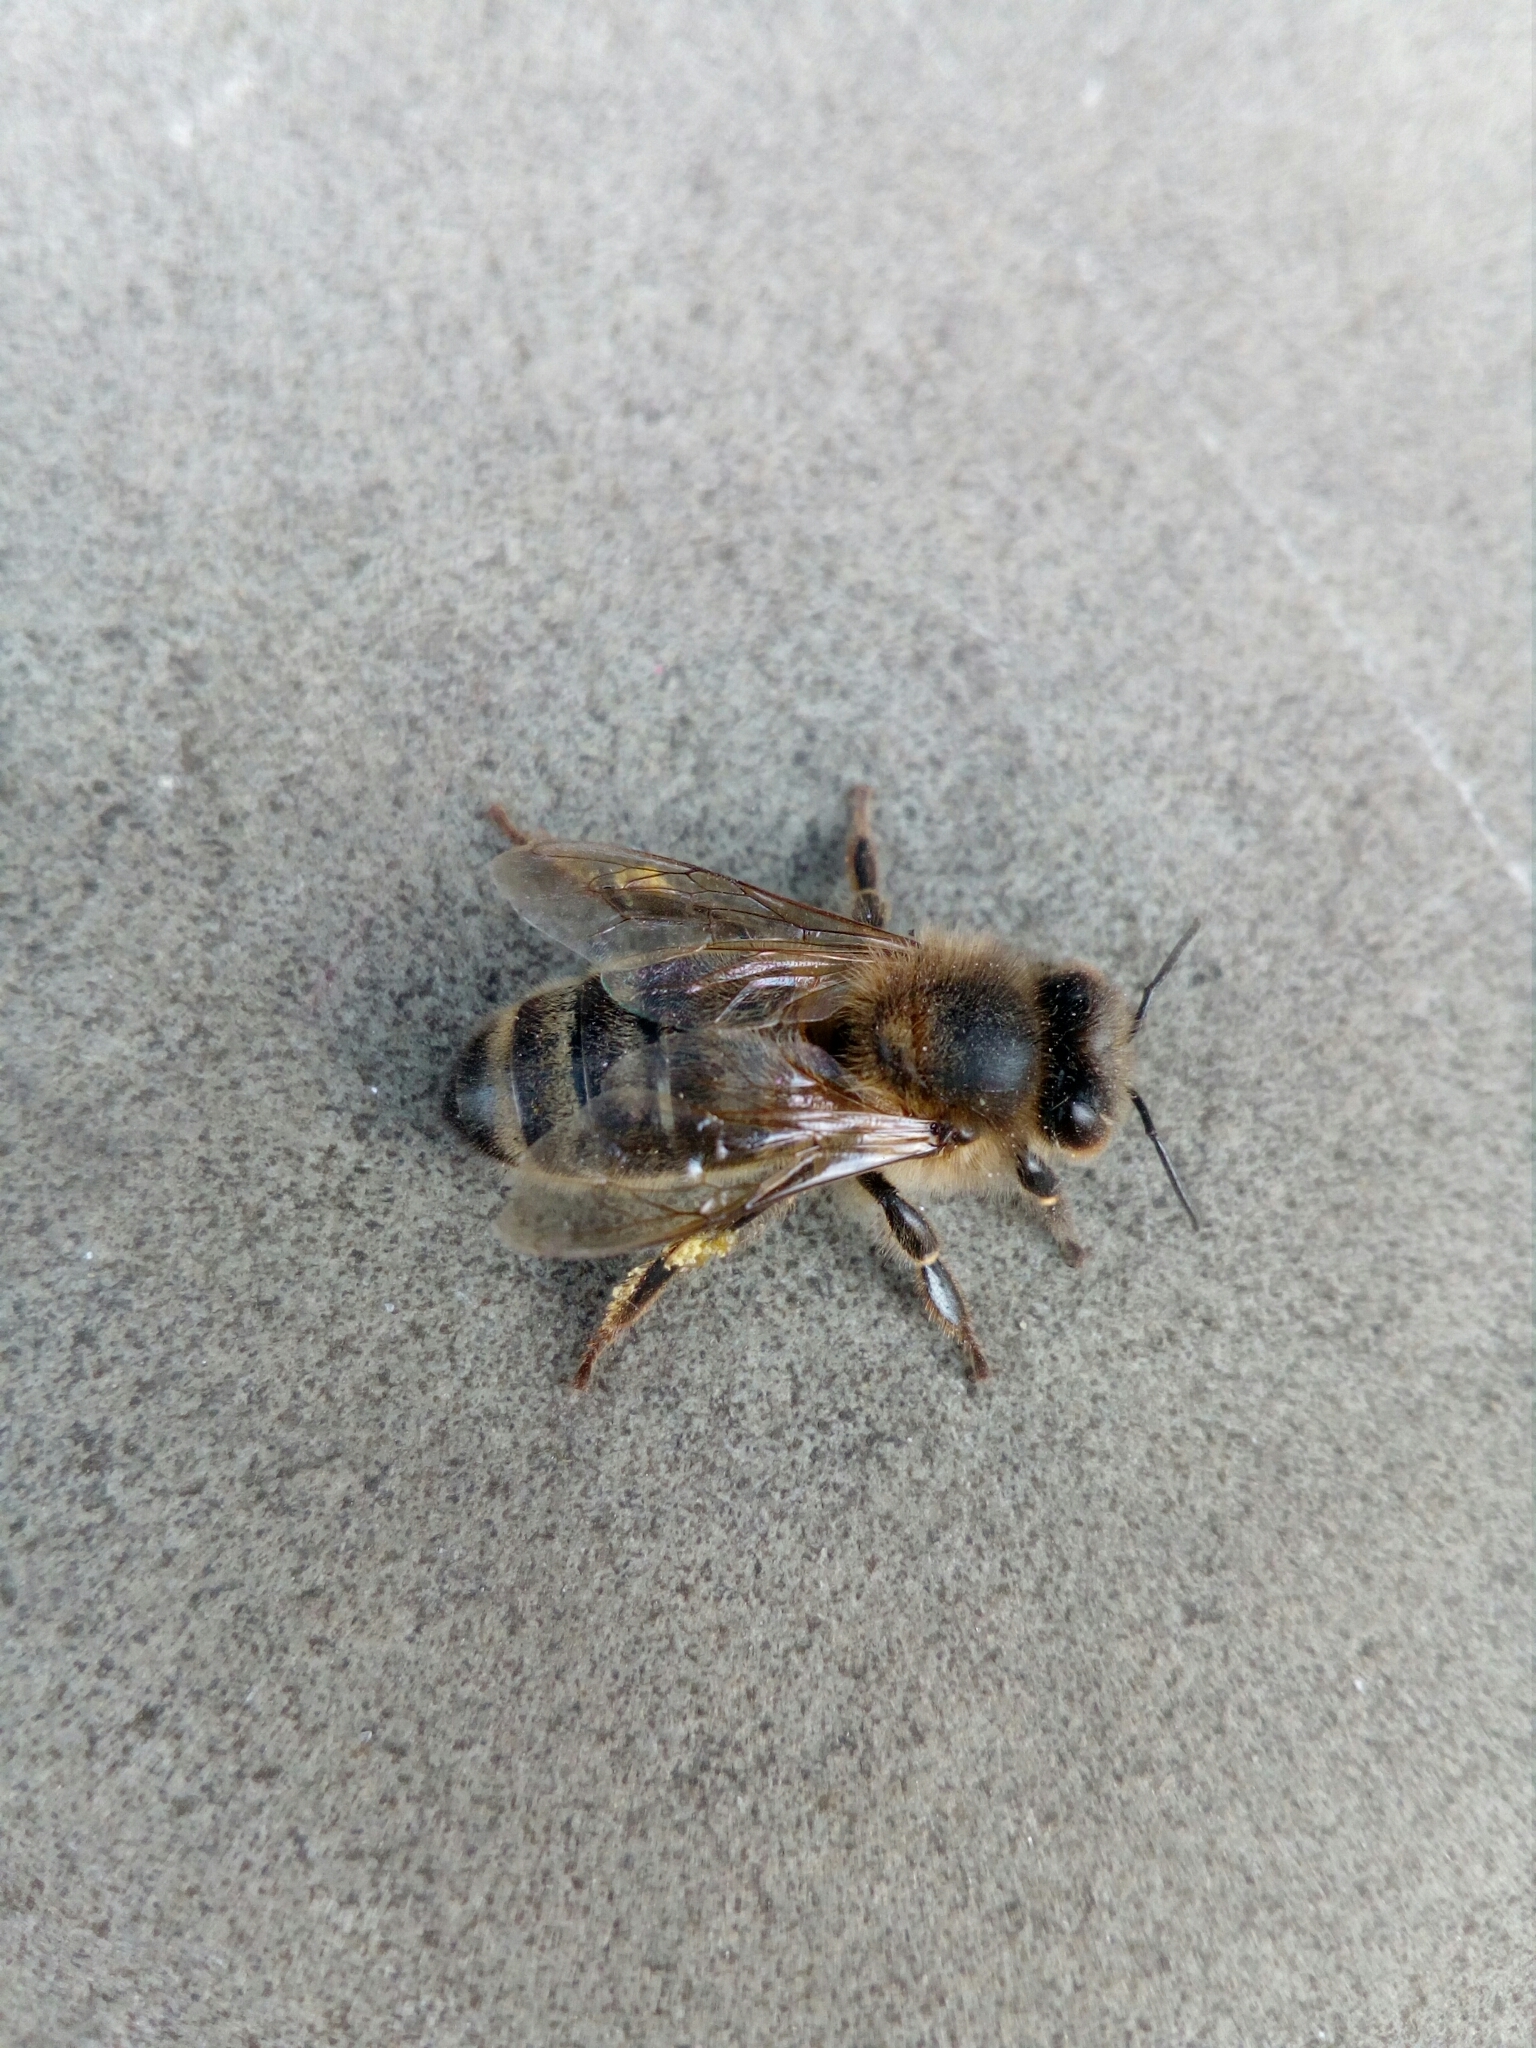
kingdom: Animalia
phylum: Arthropoda
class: Insecta
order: Hymenoptera
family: Apidae
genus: Apis
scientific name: Apis mellifera
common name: Honey bee
